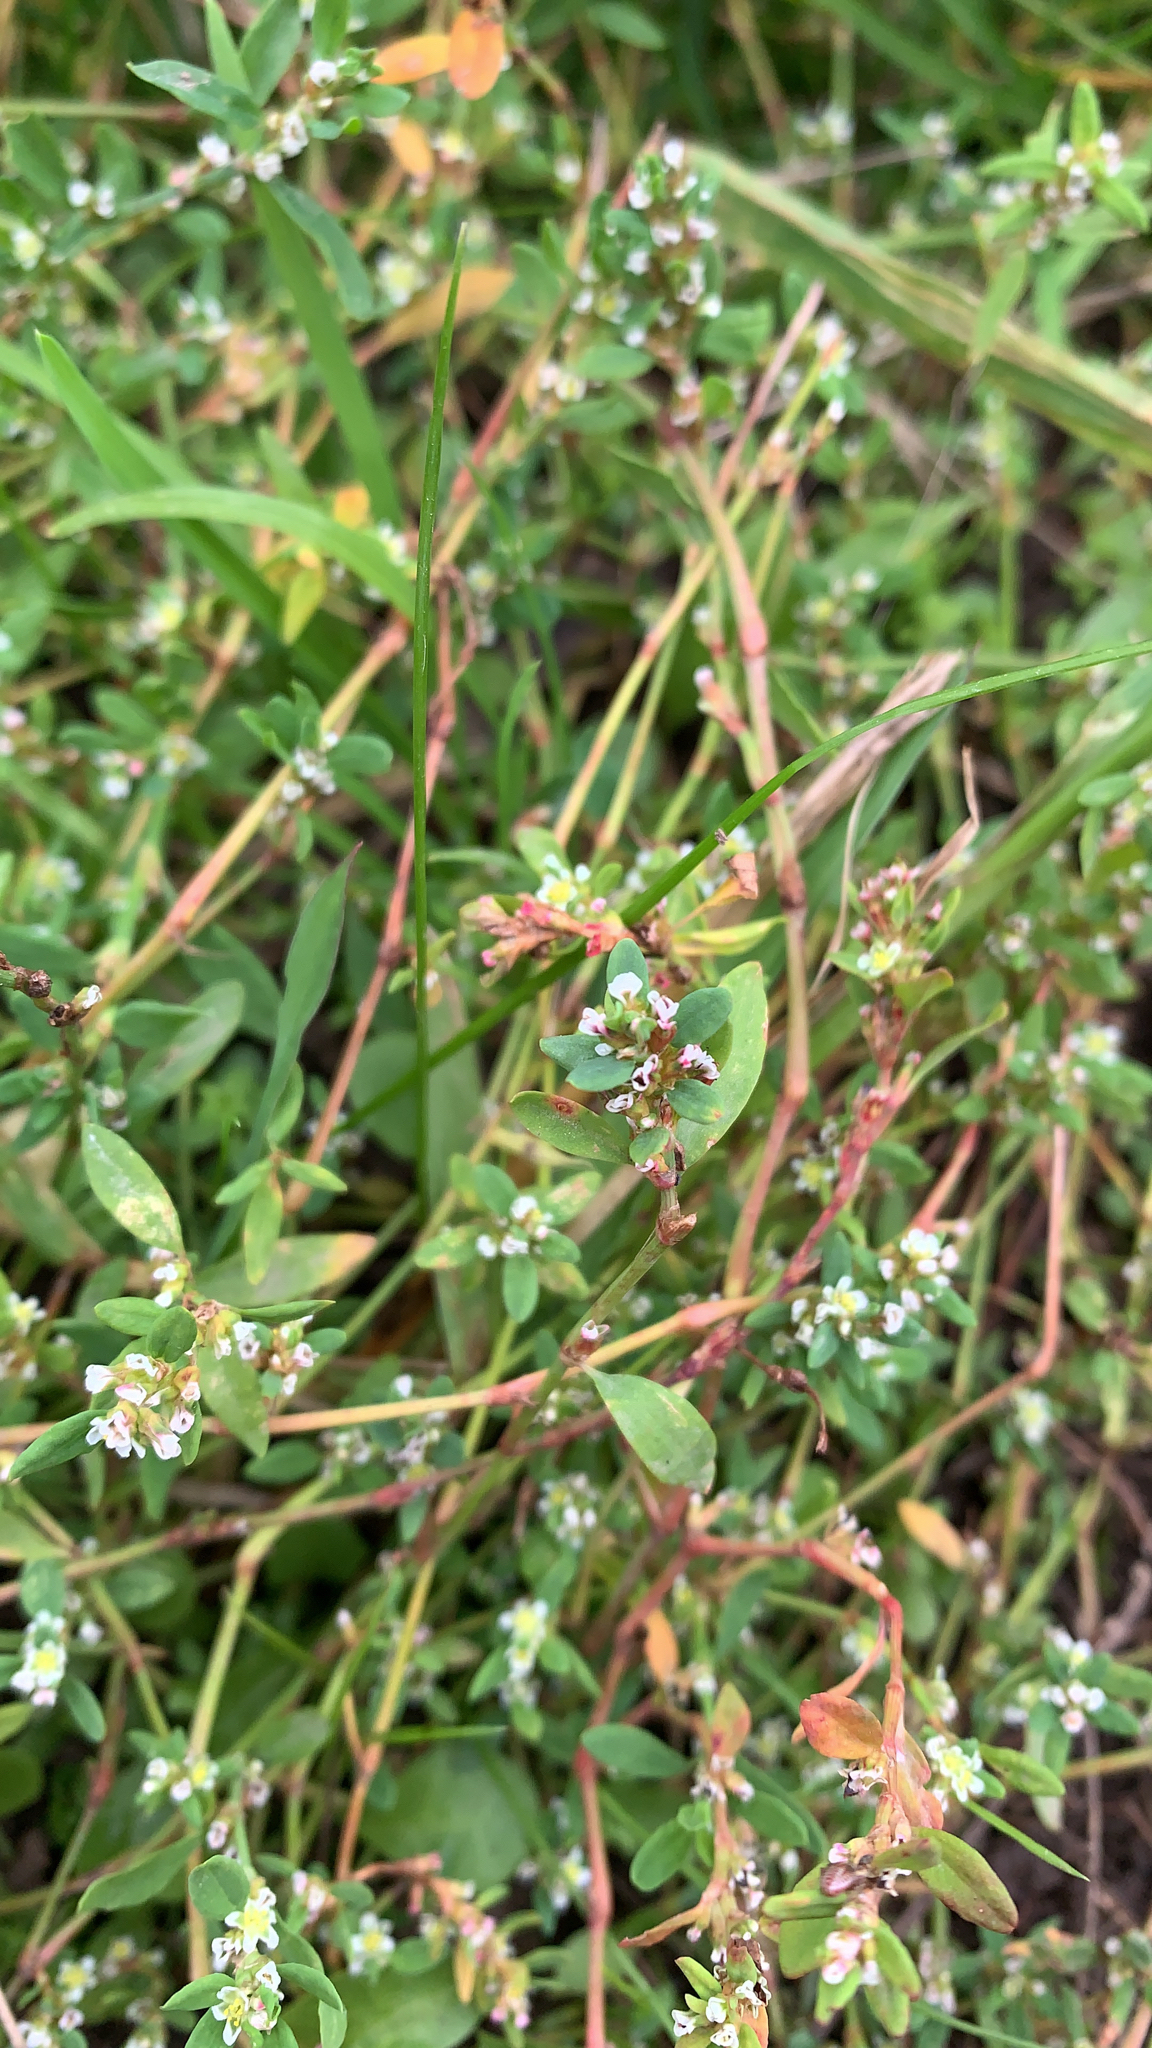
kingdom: Plantae
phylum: Tracheophyta
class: Magnoliopsida
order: Caryophyllales
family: Polygonaceae
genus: Polygonum
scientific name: Polygonum
